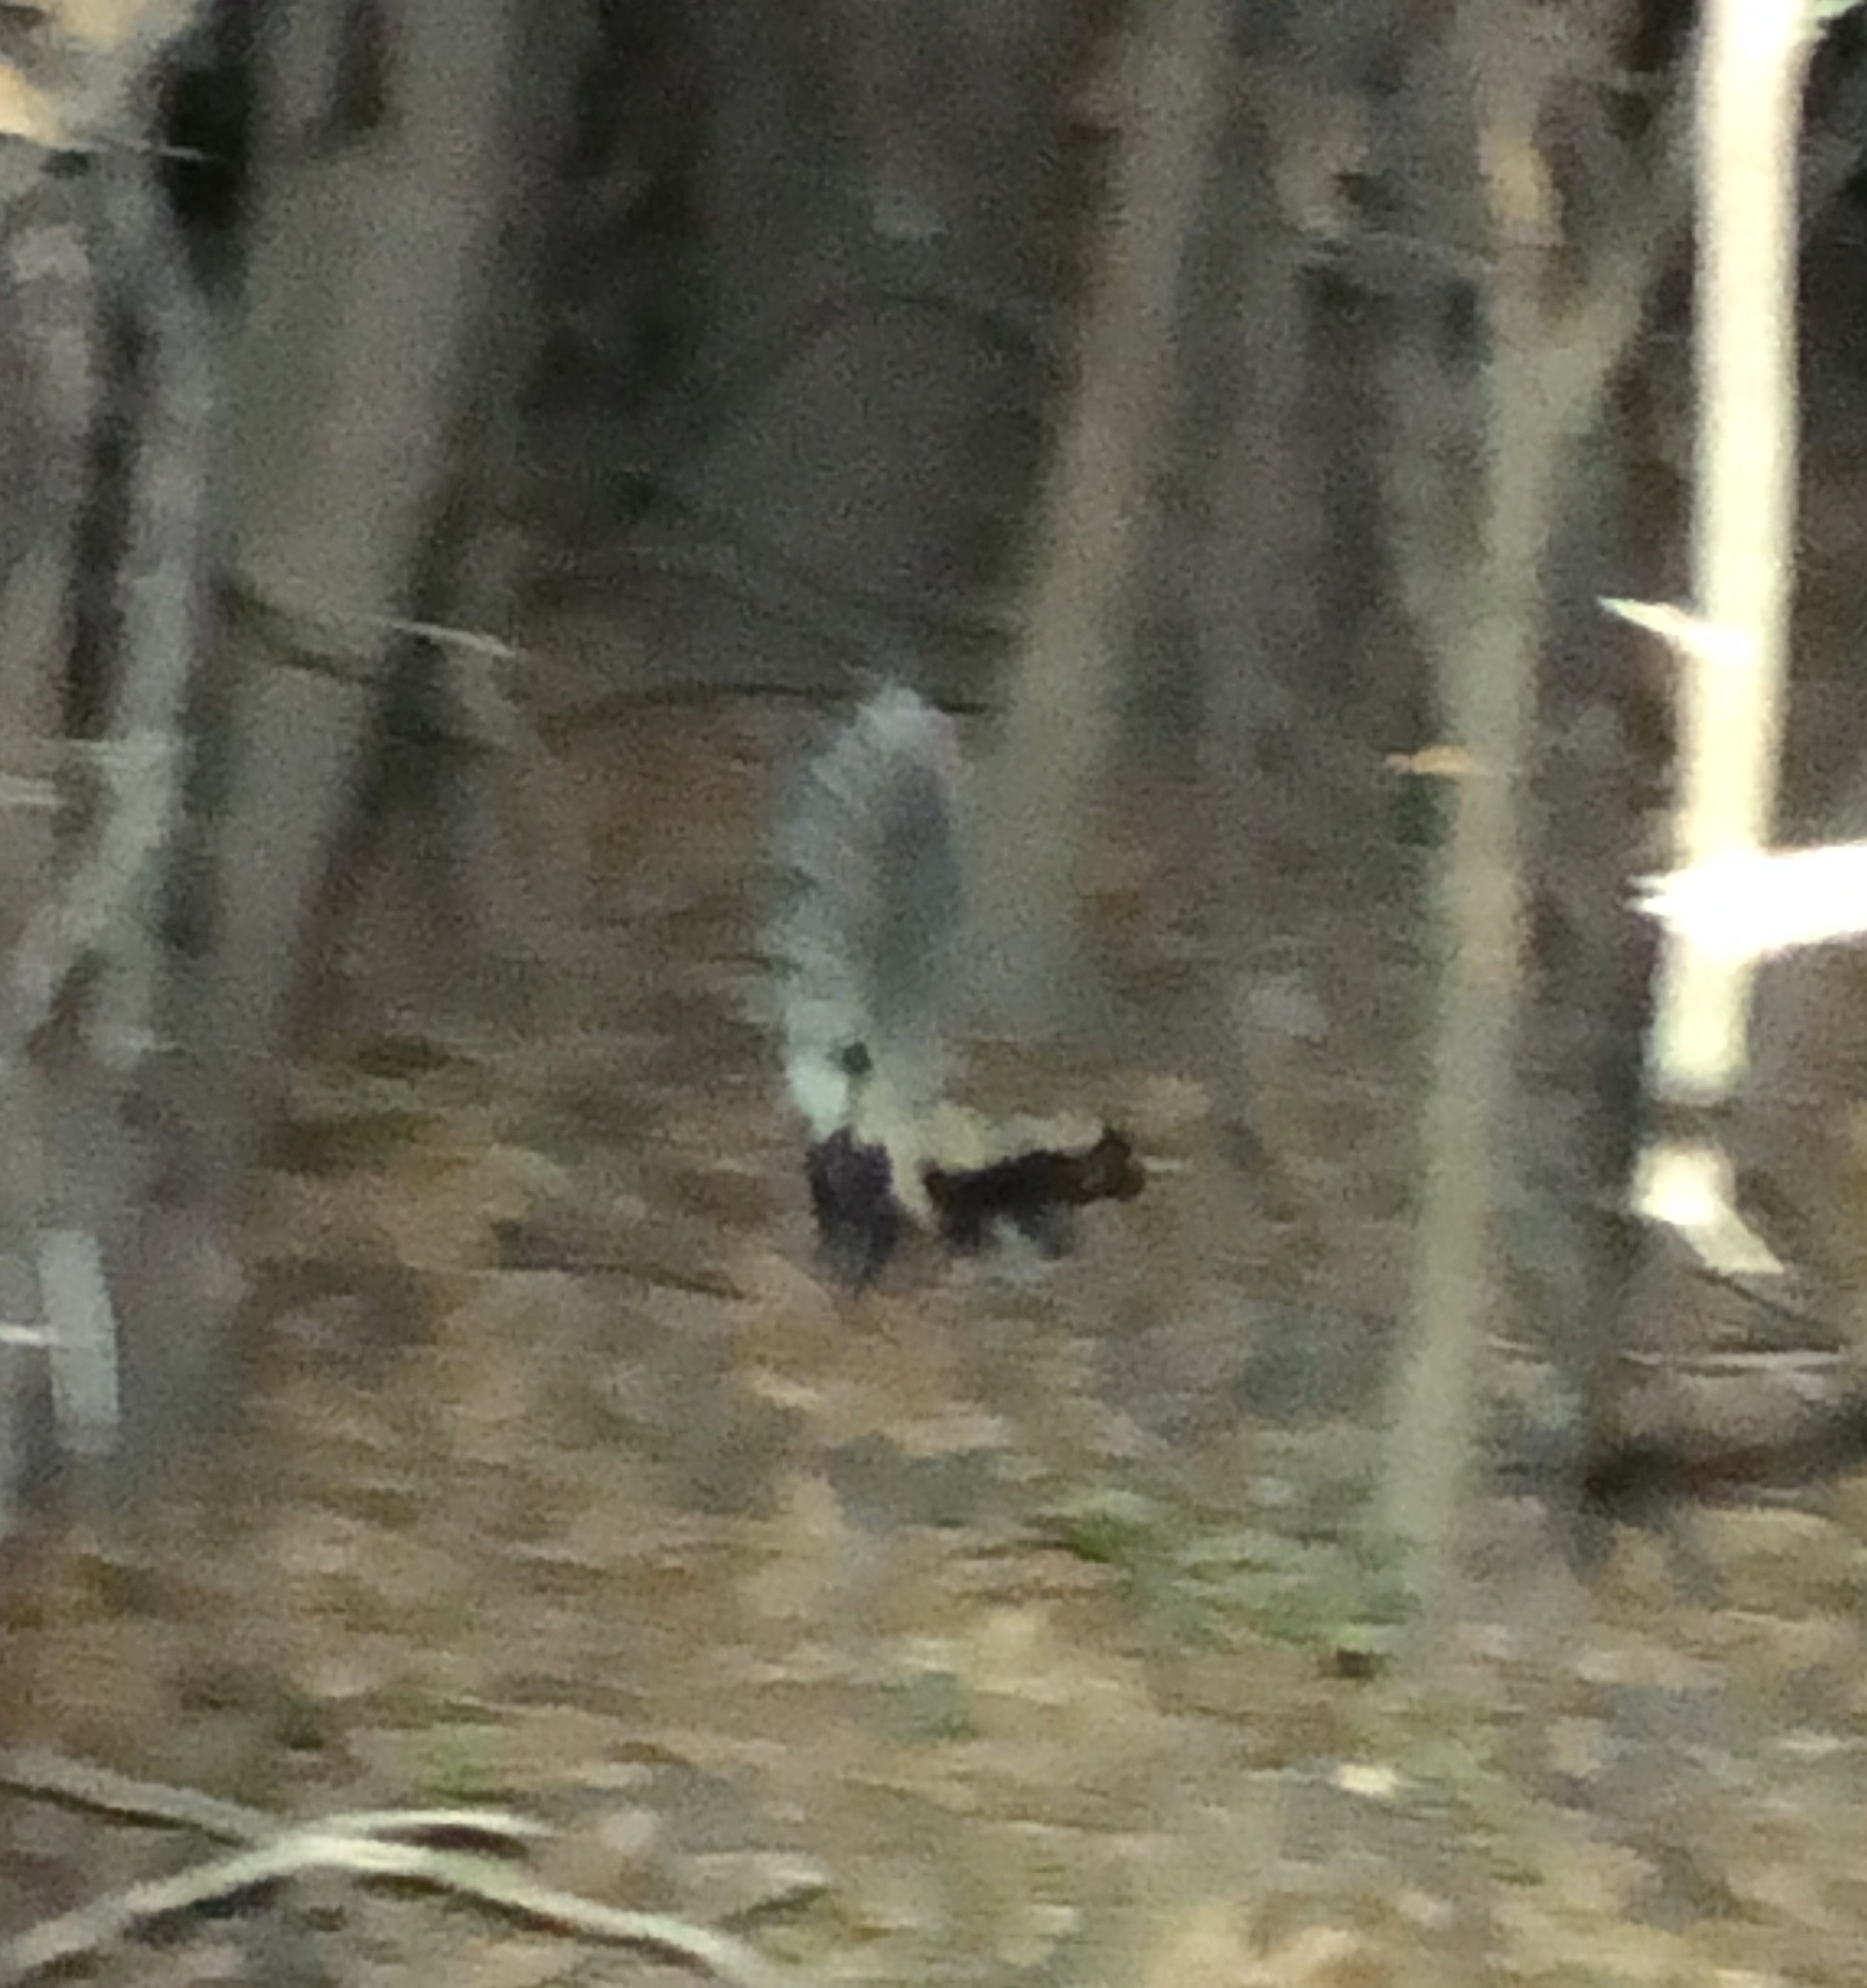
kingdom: Animalia
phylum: Chordata
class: Mammalia
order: Carnivora
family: Mephitidae
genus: Mephitis
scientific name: Mephitis mephitis
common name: Striped skunk
